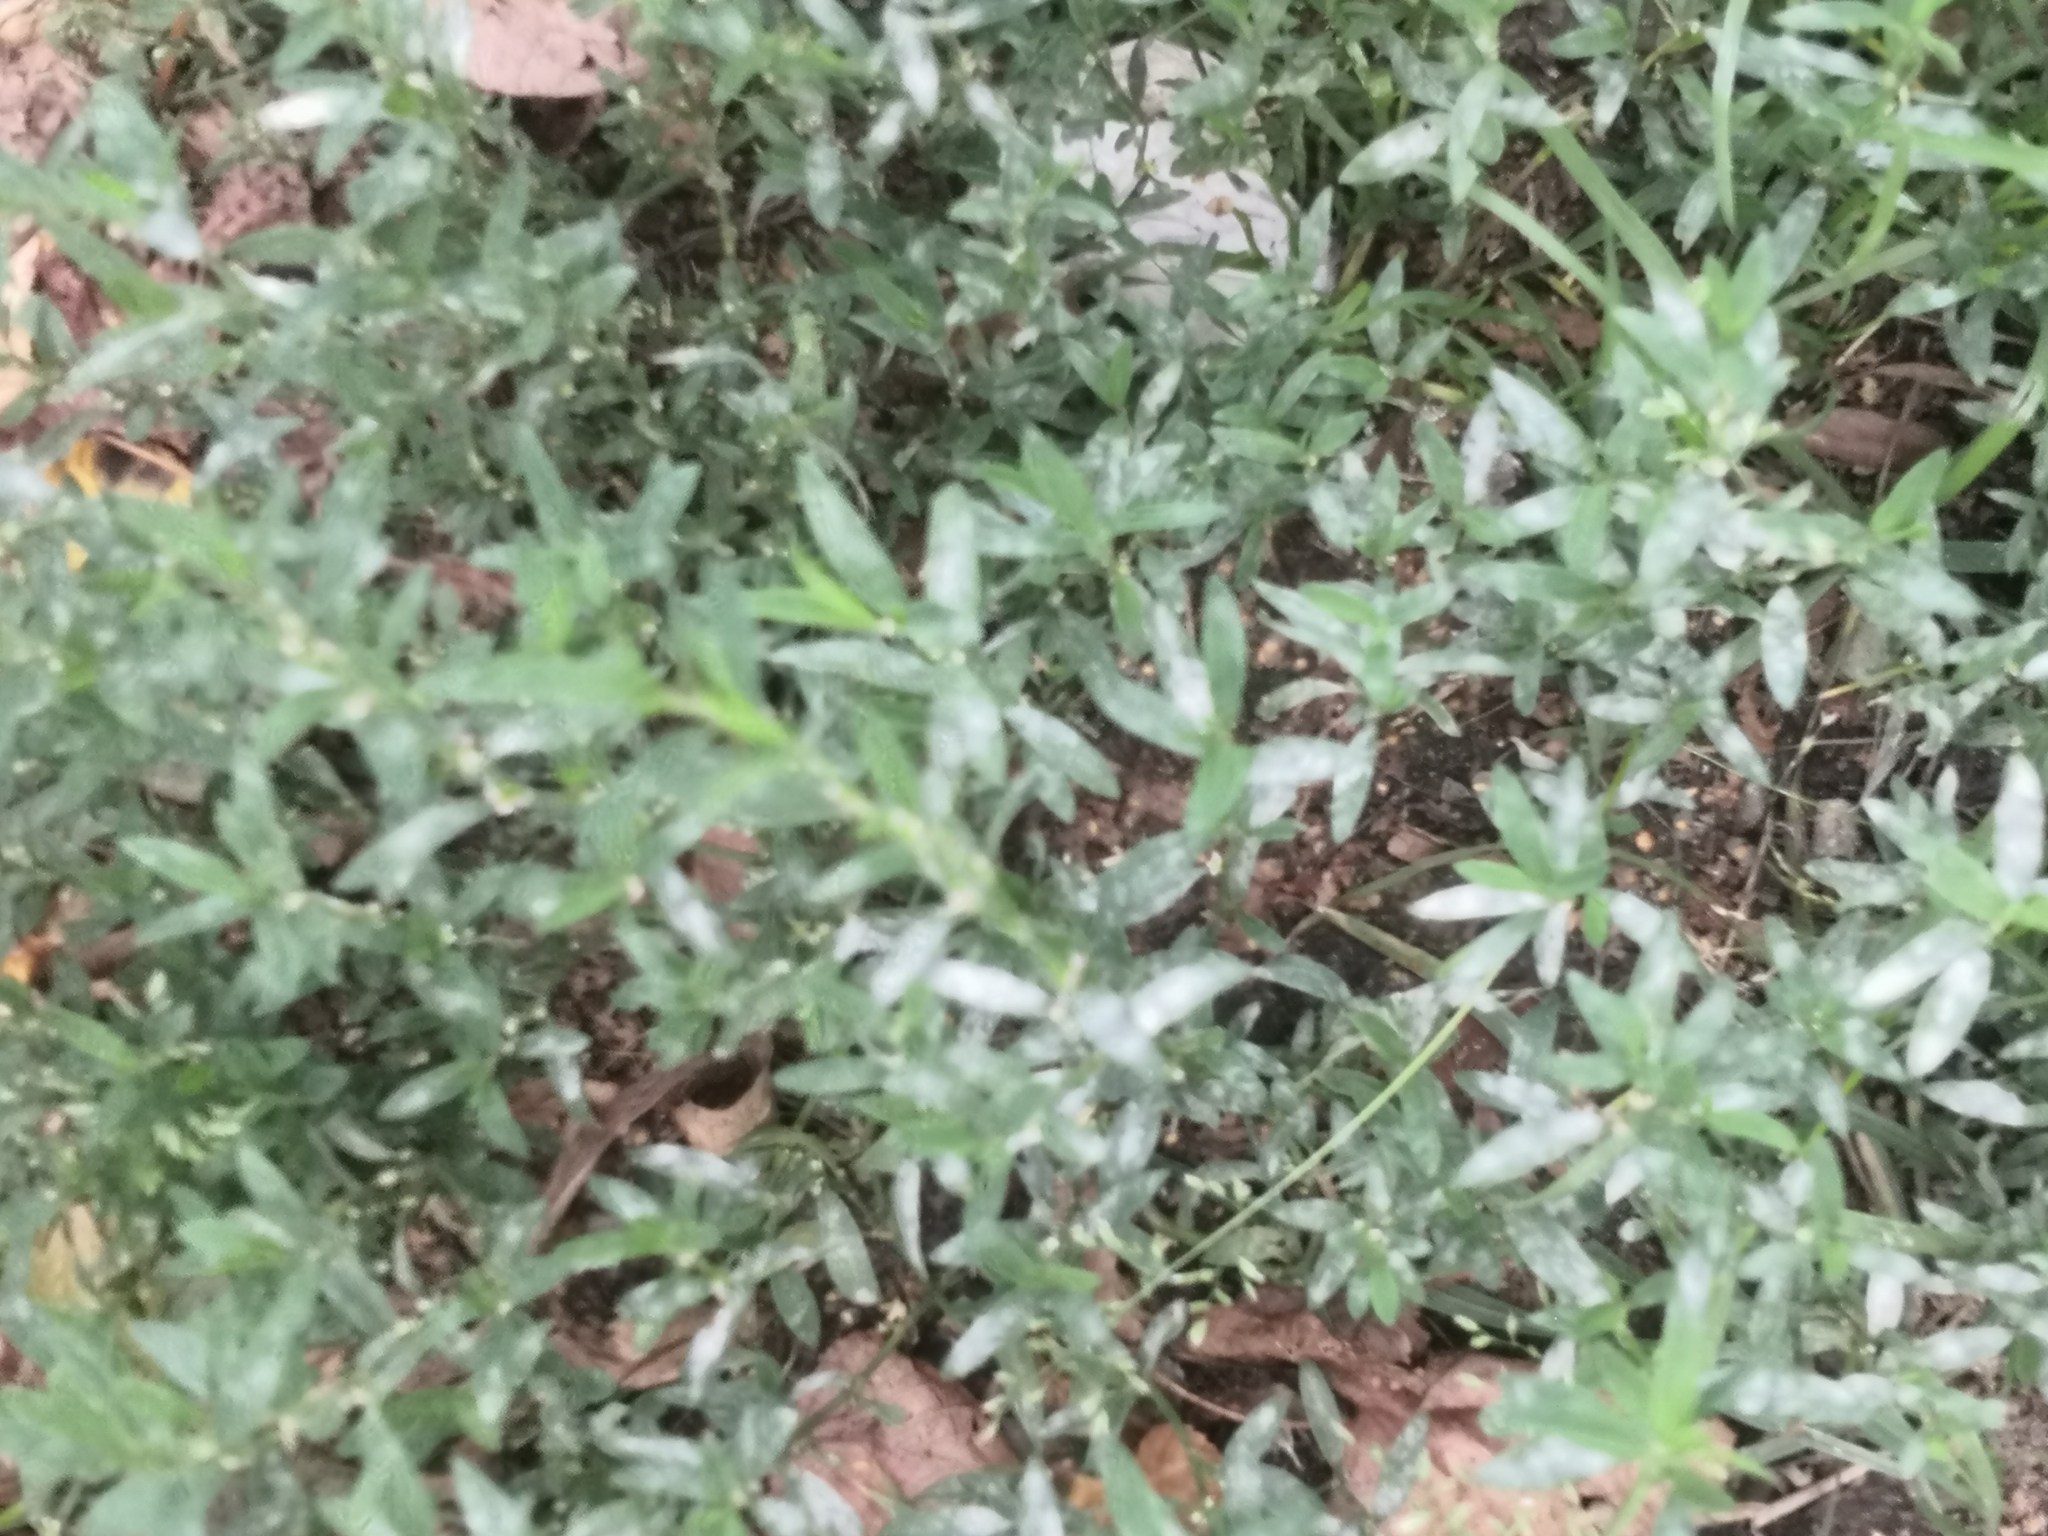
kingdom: Plantae
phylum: Tracheophyta
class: Magnoliopsida
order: Caryophyllales
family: Polygonaceae
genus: Polygonum
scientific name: Polygonum
